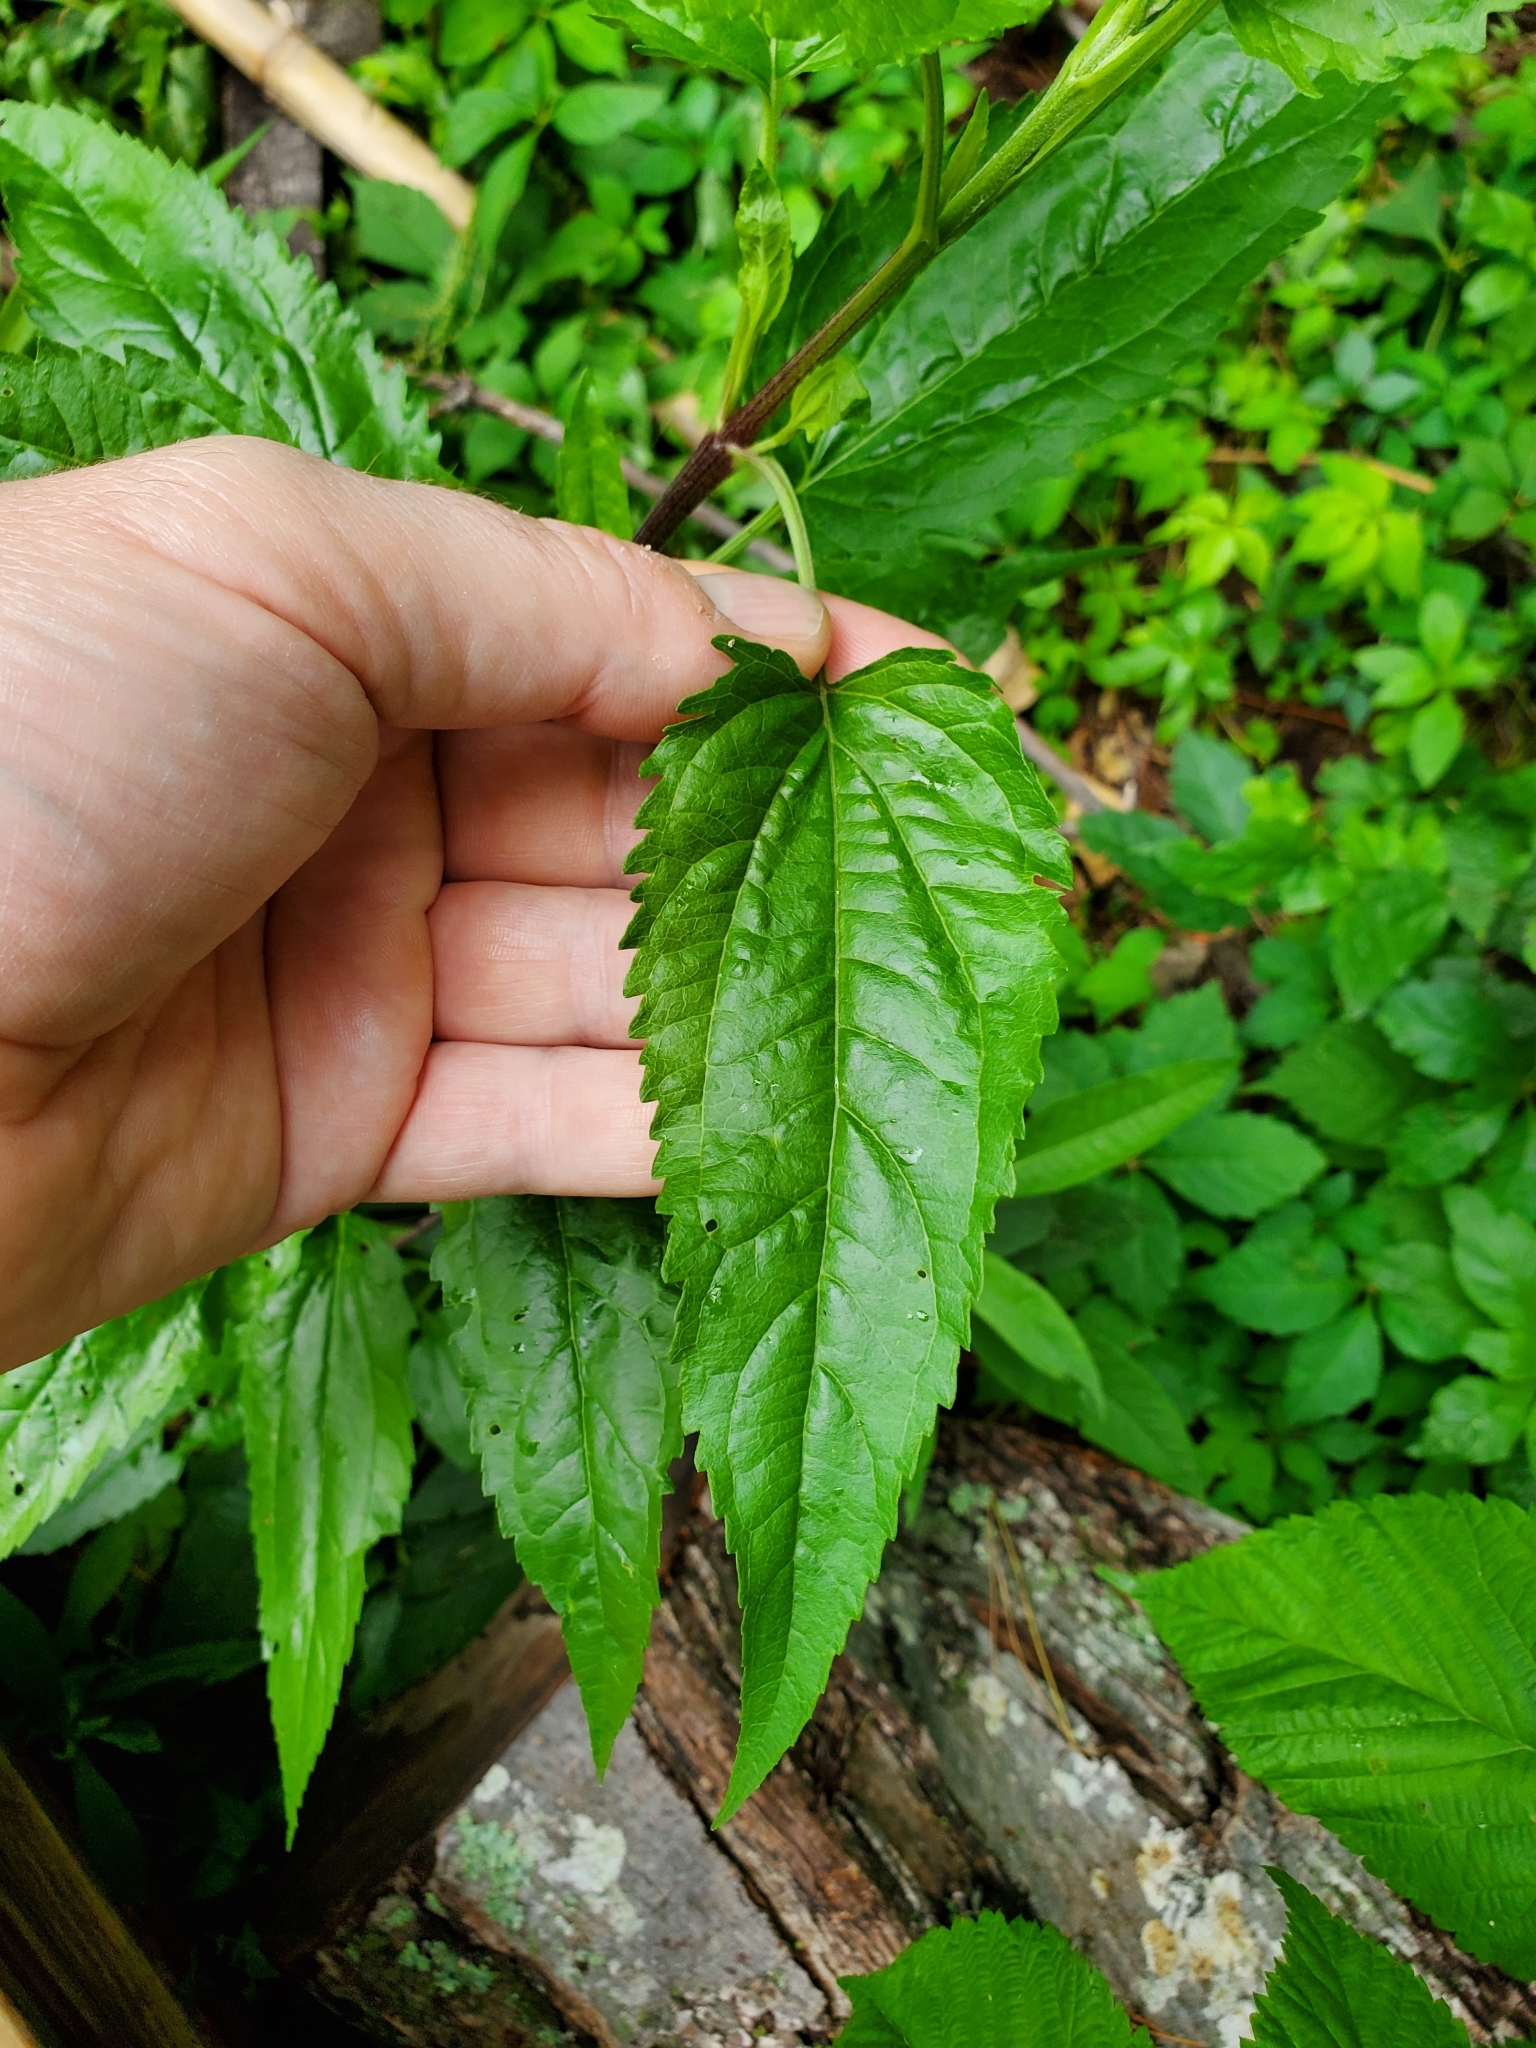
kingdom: Plantae
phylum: Tracheophyta
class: Magnoliopsida
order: Asterales
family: Asteraceae
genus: Eupatorium
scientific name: Eupatorium serotinum
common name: Late boneset
